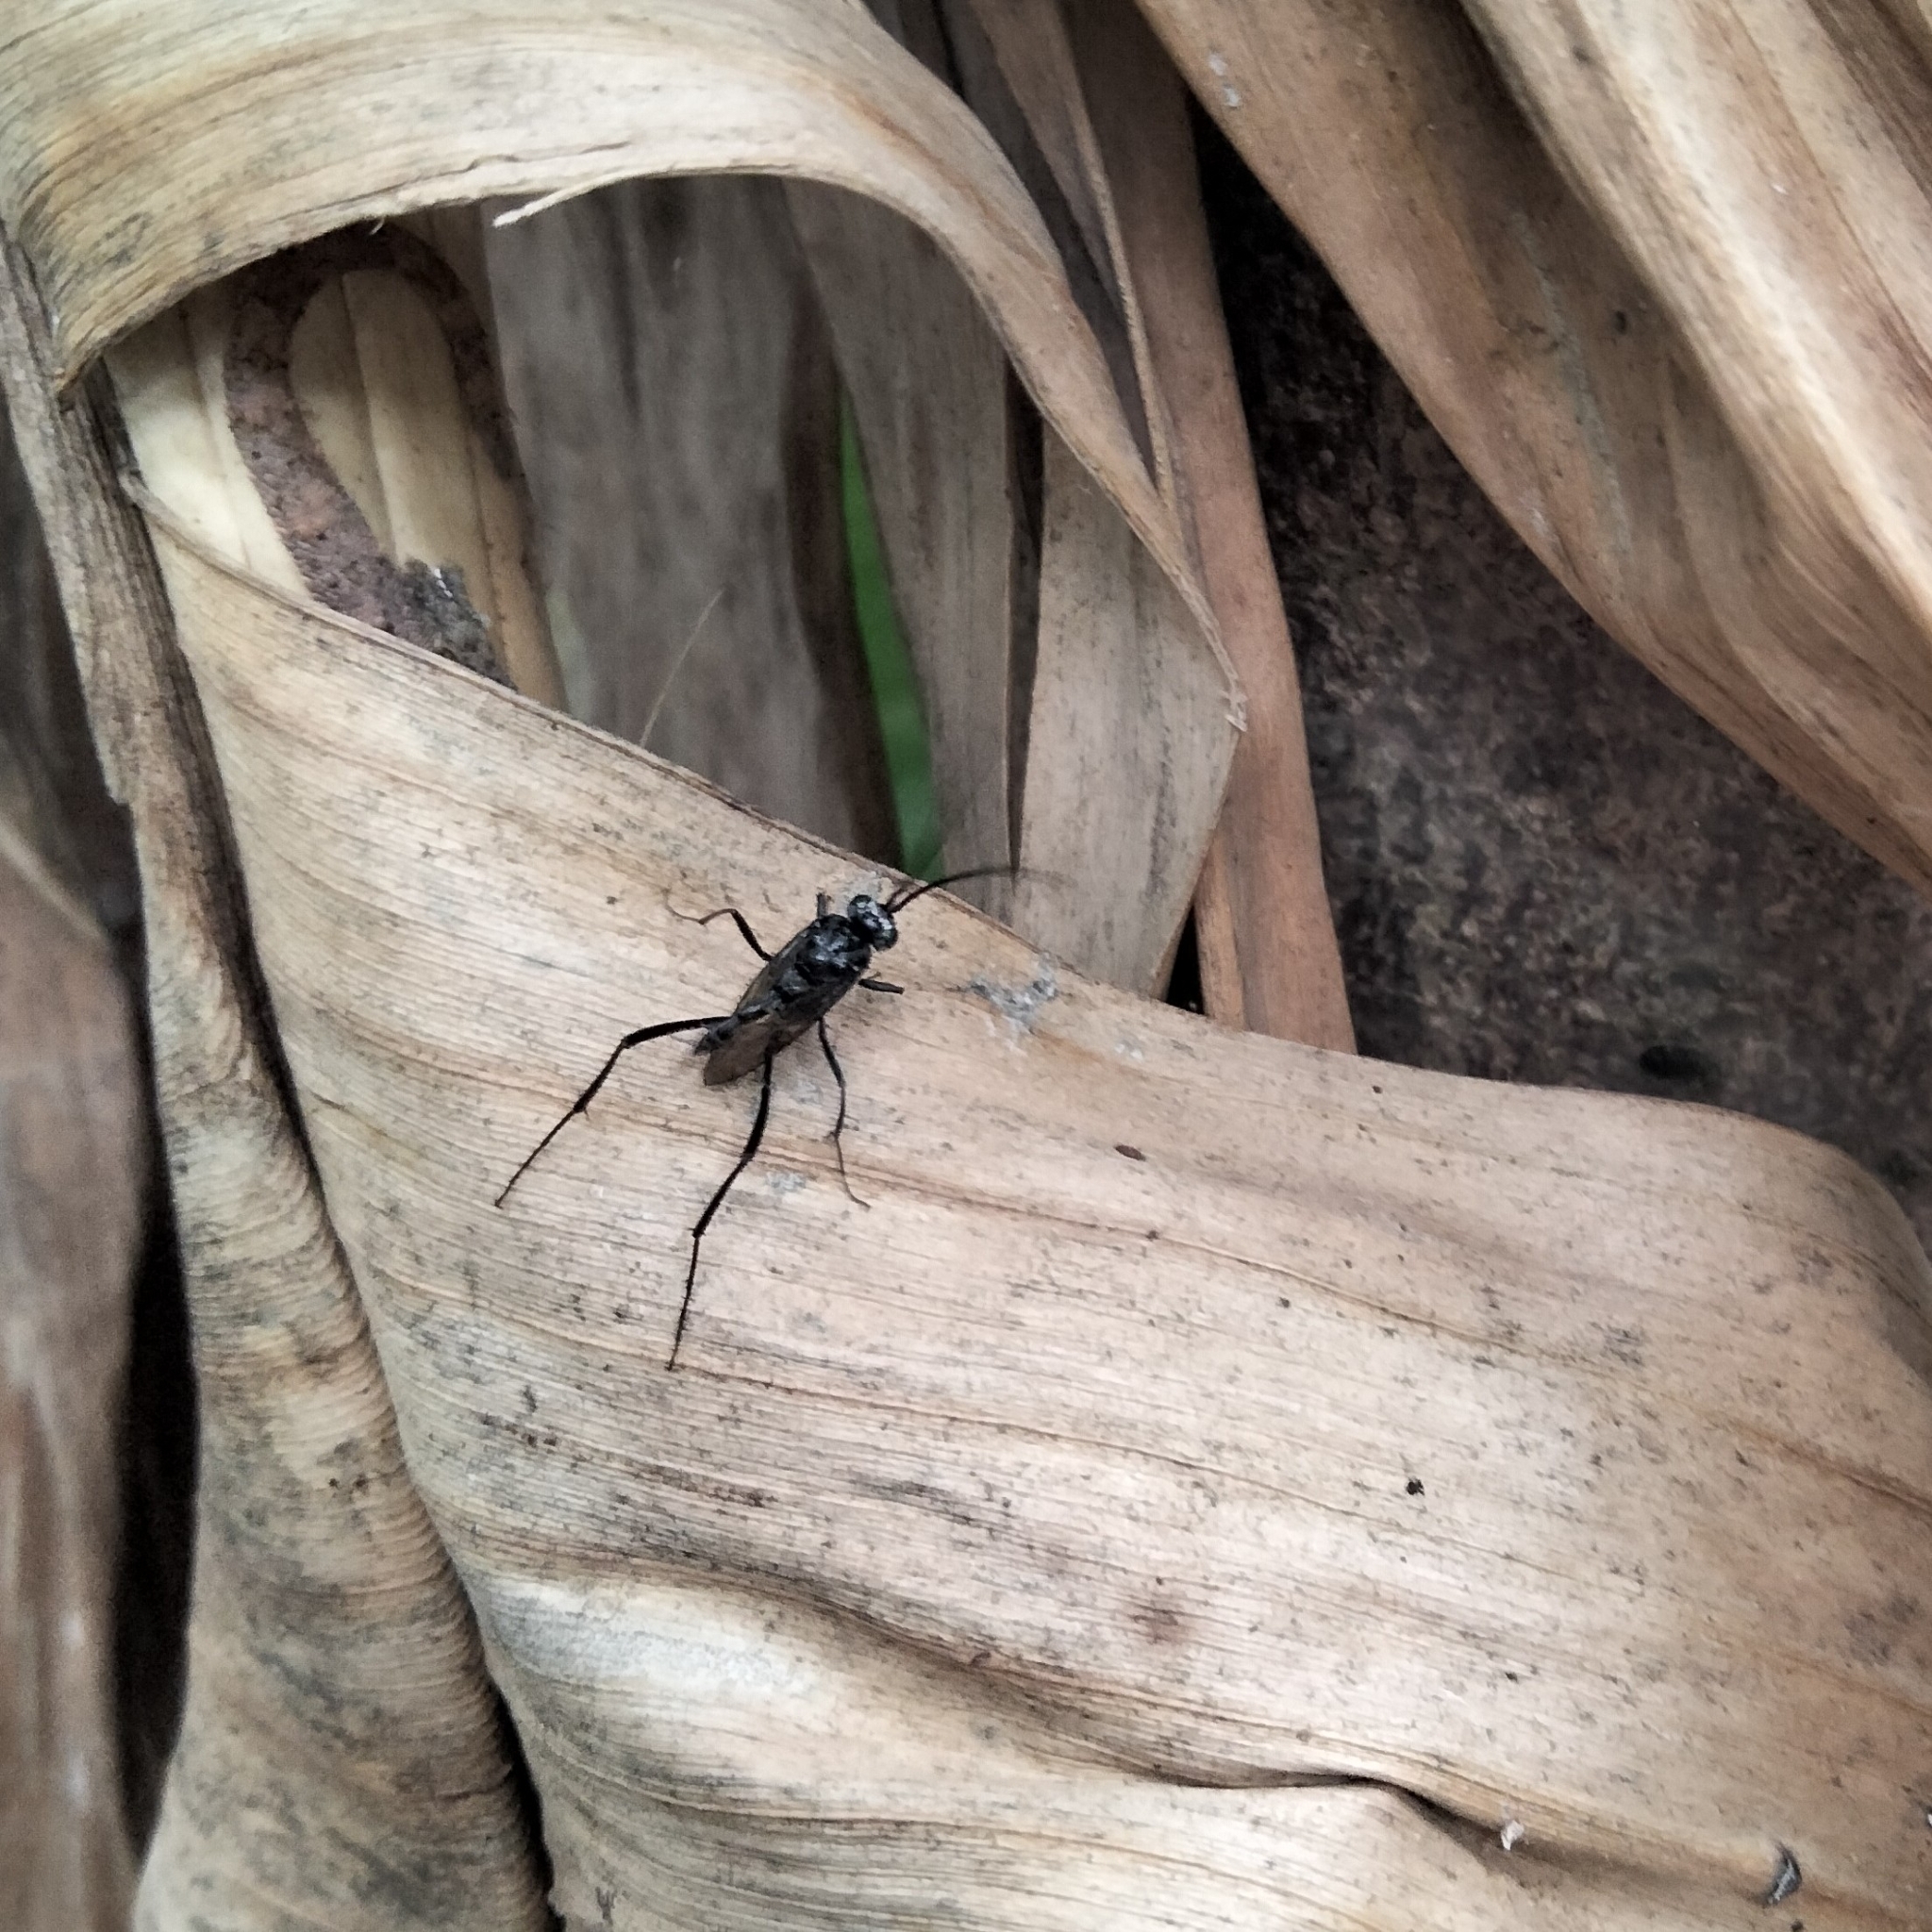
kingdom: Animalia
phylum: Arthropoda
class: Insecta
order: Hymenoptera
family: Evaniidae
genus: Evania
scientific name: Evania appendigaster
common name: Ensign wasp
